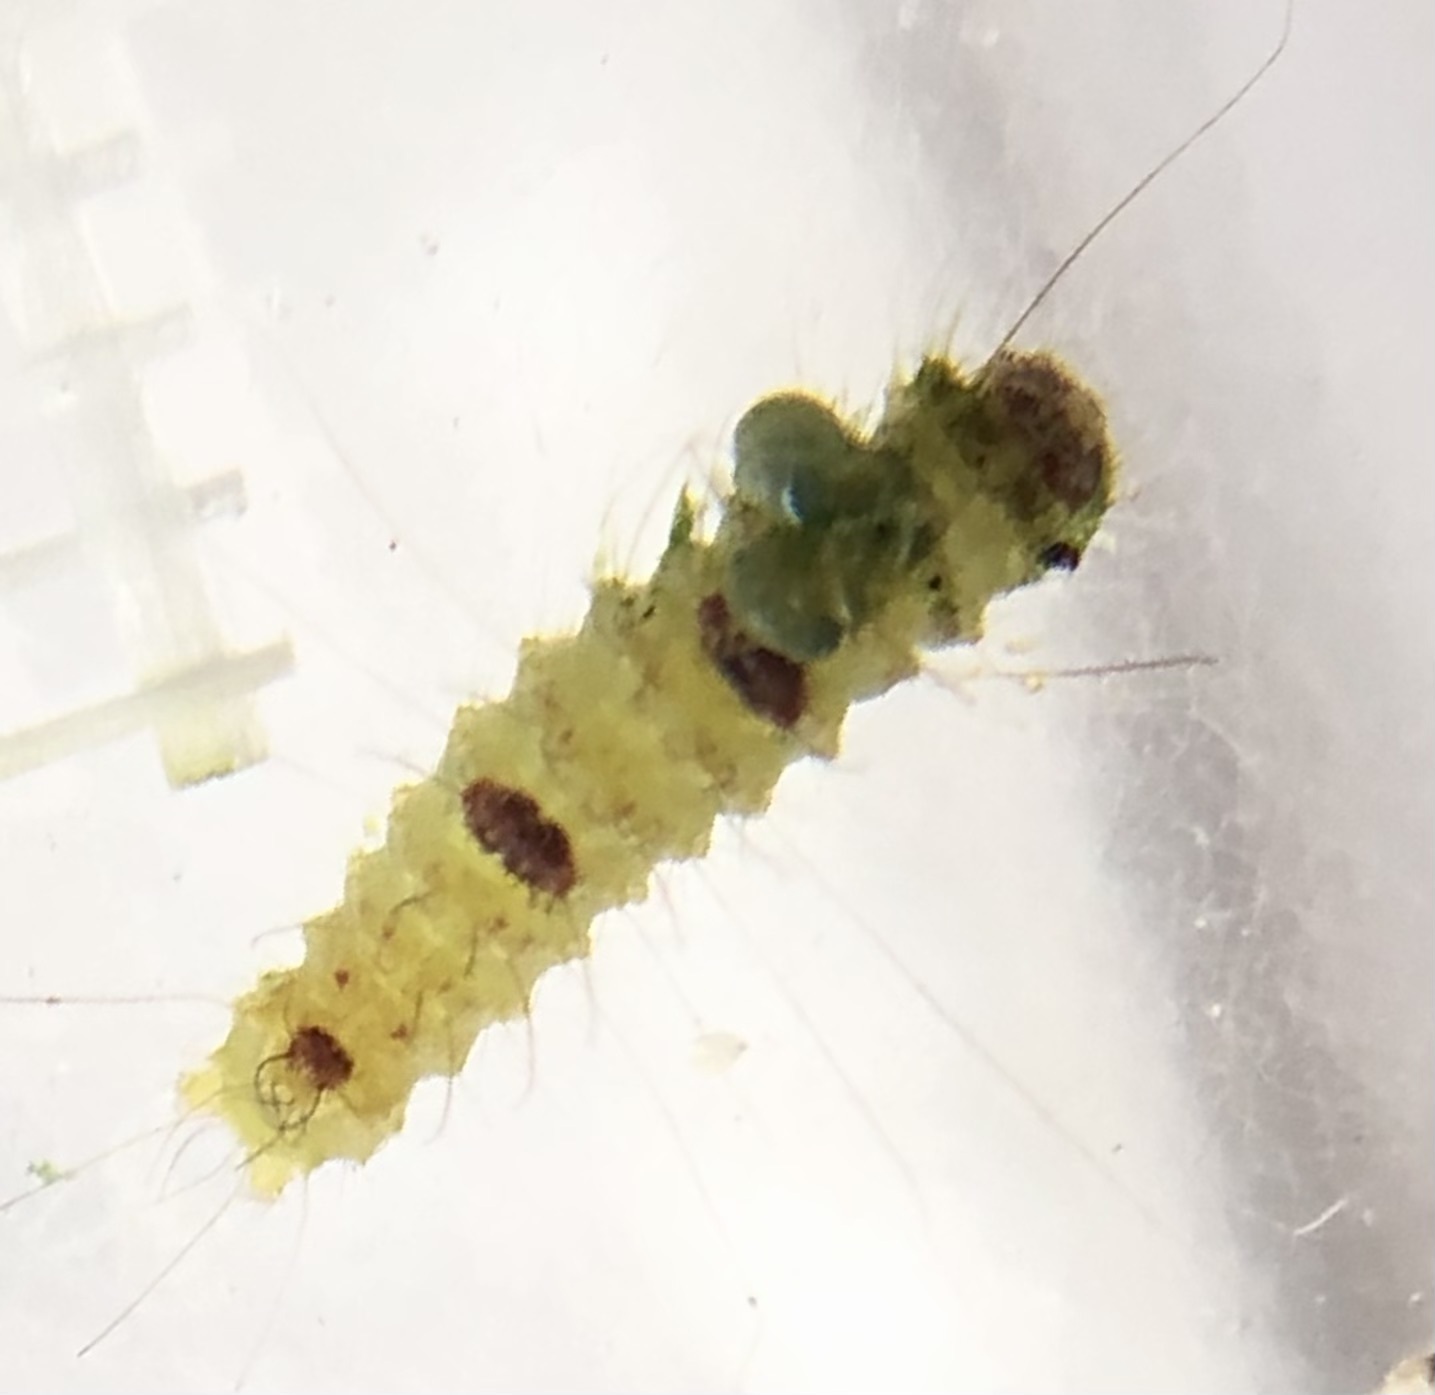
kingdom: Animalia
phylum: Arthropoda
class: Insecta
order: Lepidoptera
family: Noctuidae
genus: Acronicta
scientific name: Acronicta morula
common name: Ochre dagger
